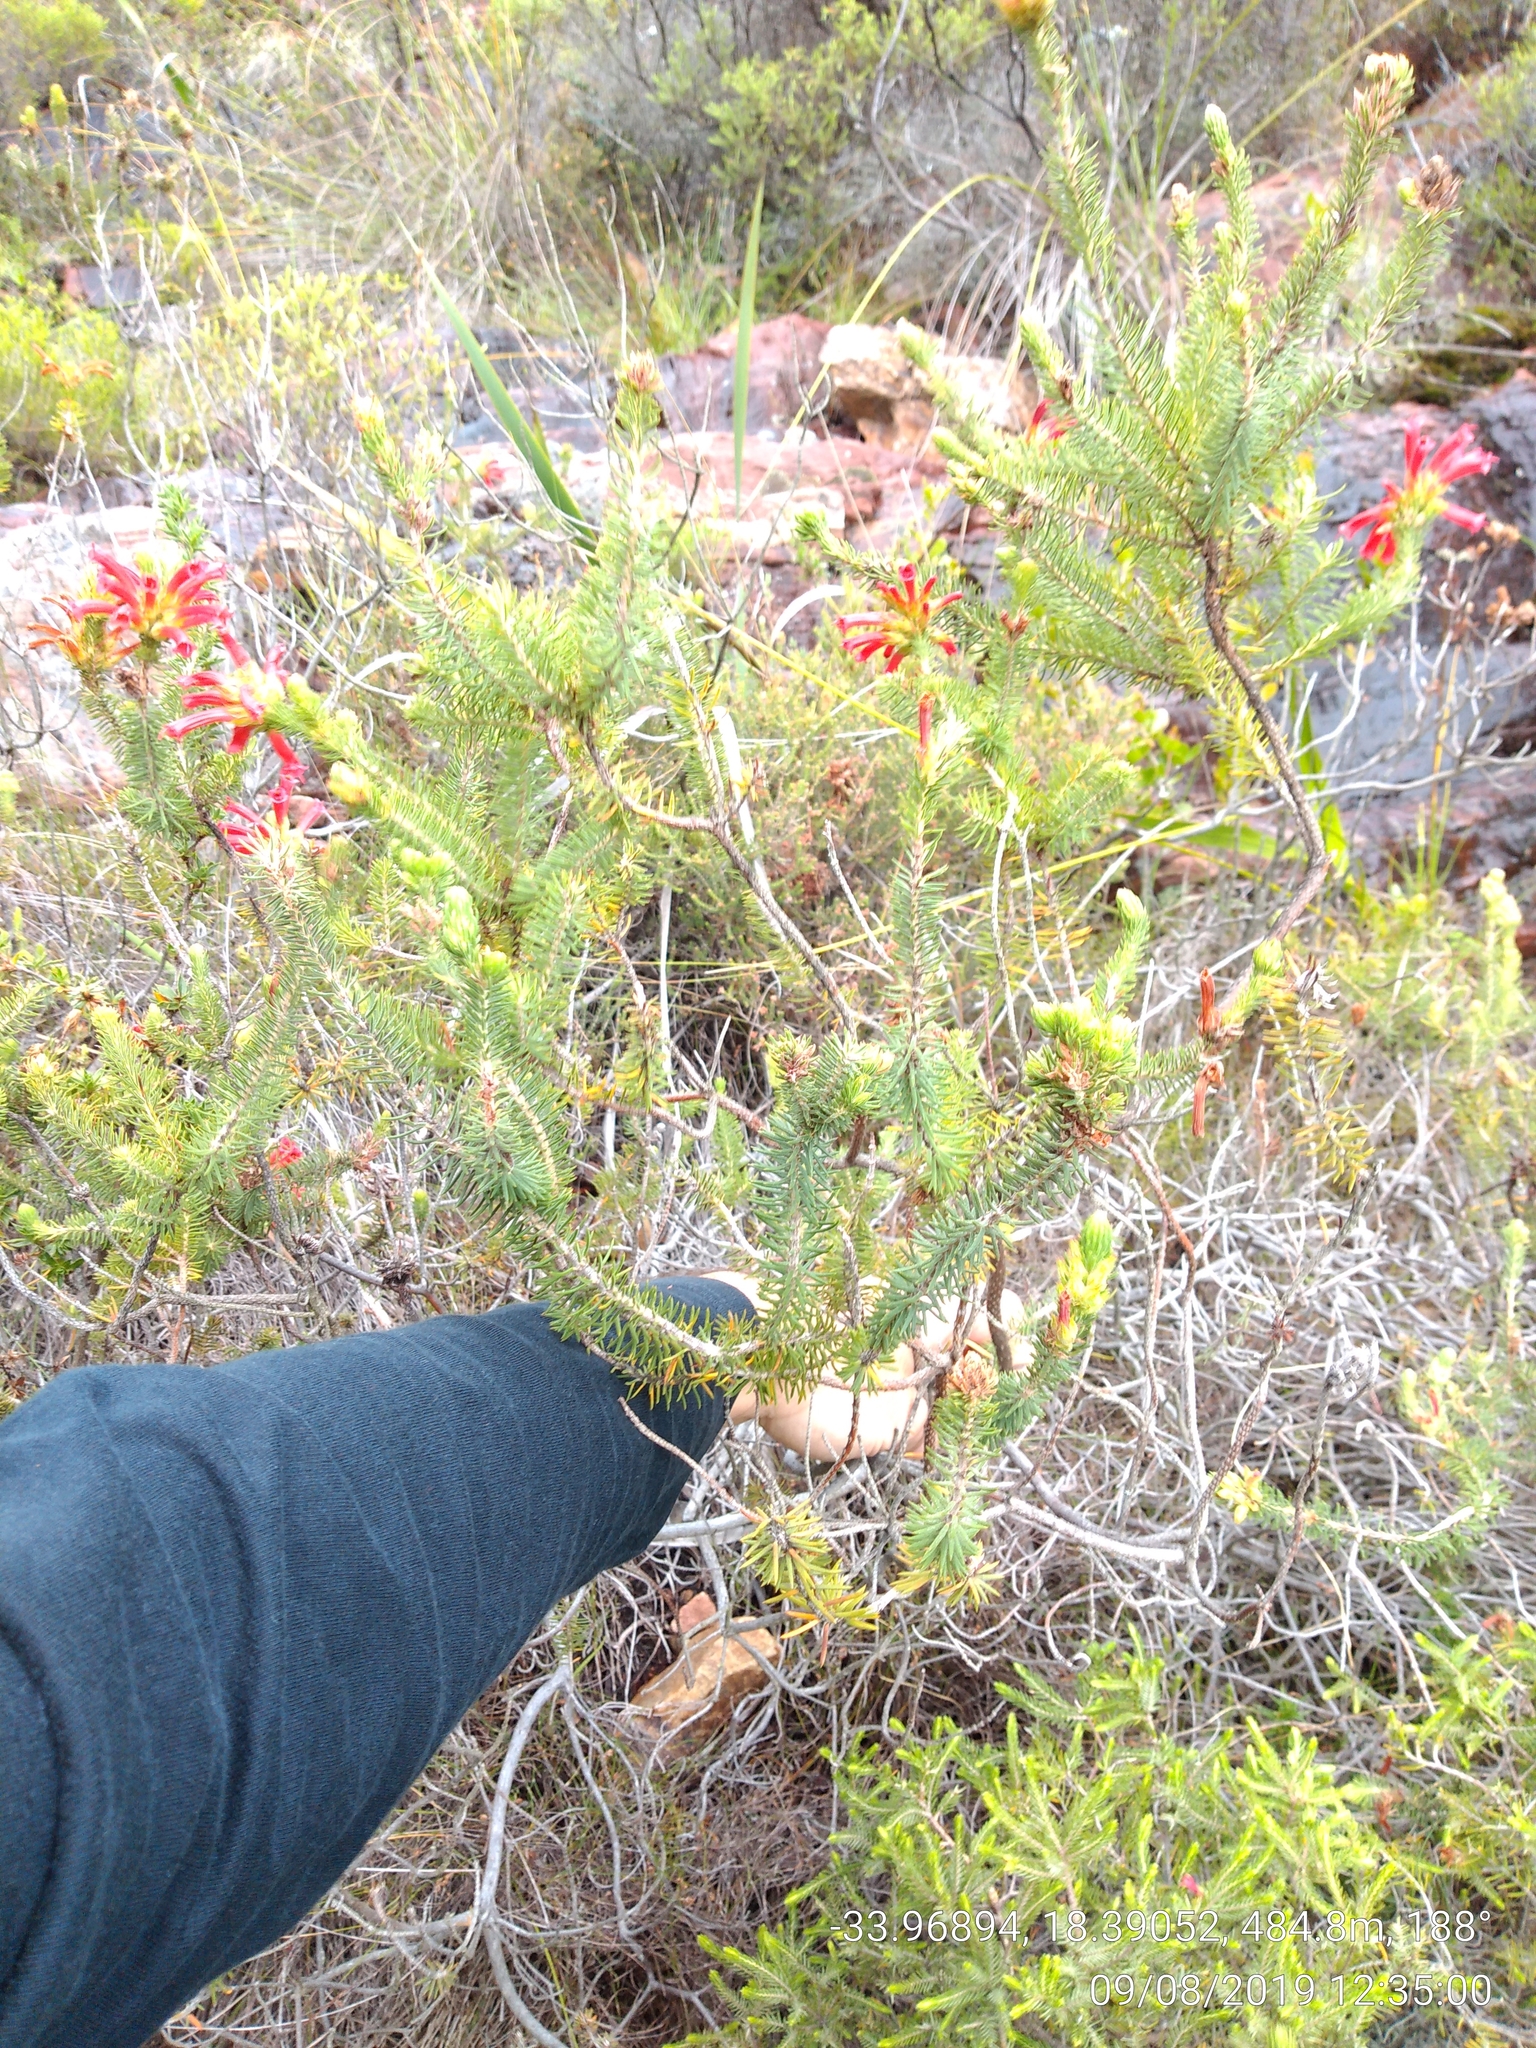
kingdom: Plantae
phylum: Tracheophyta
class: Magnoliopsida
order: Ericales
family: Ericaceae
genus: Erica
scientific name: Erica abietina
